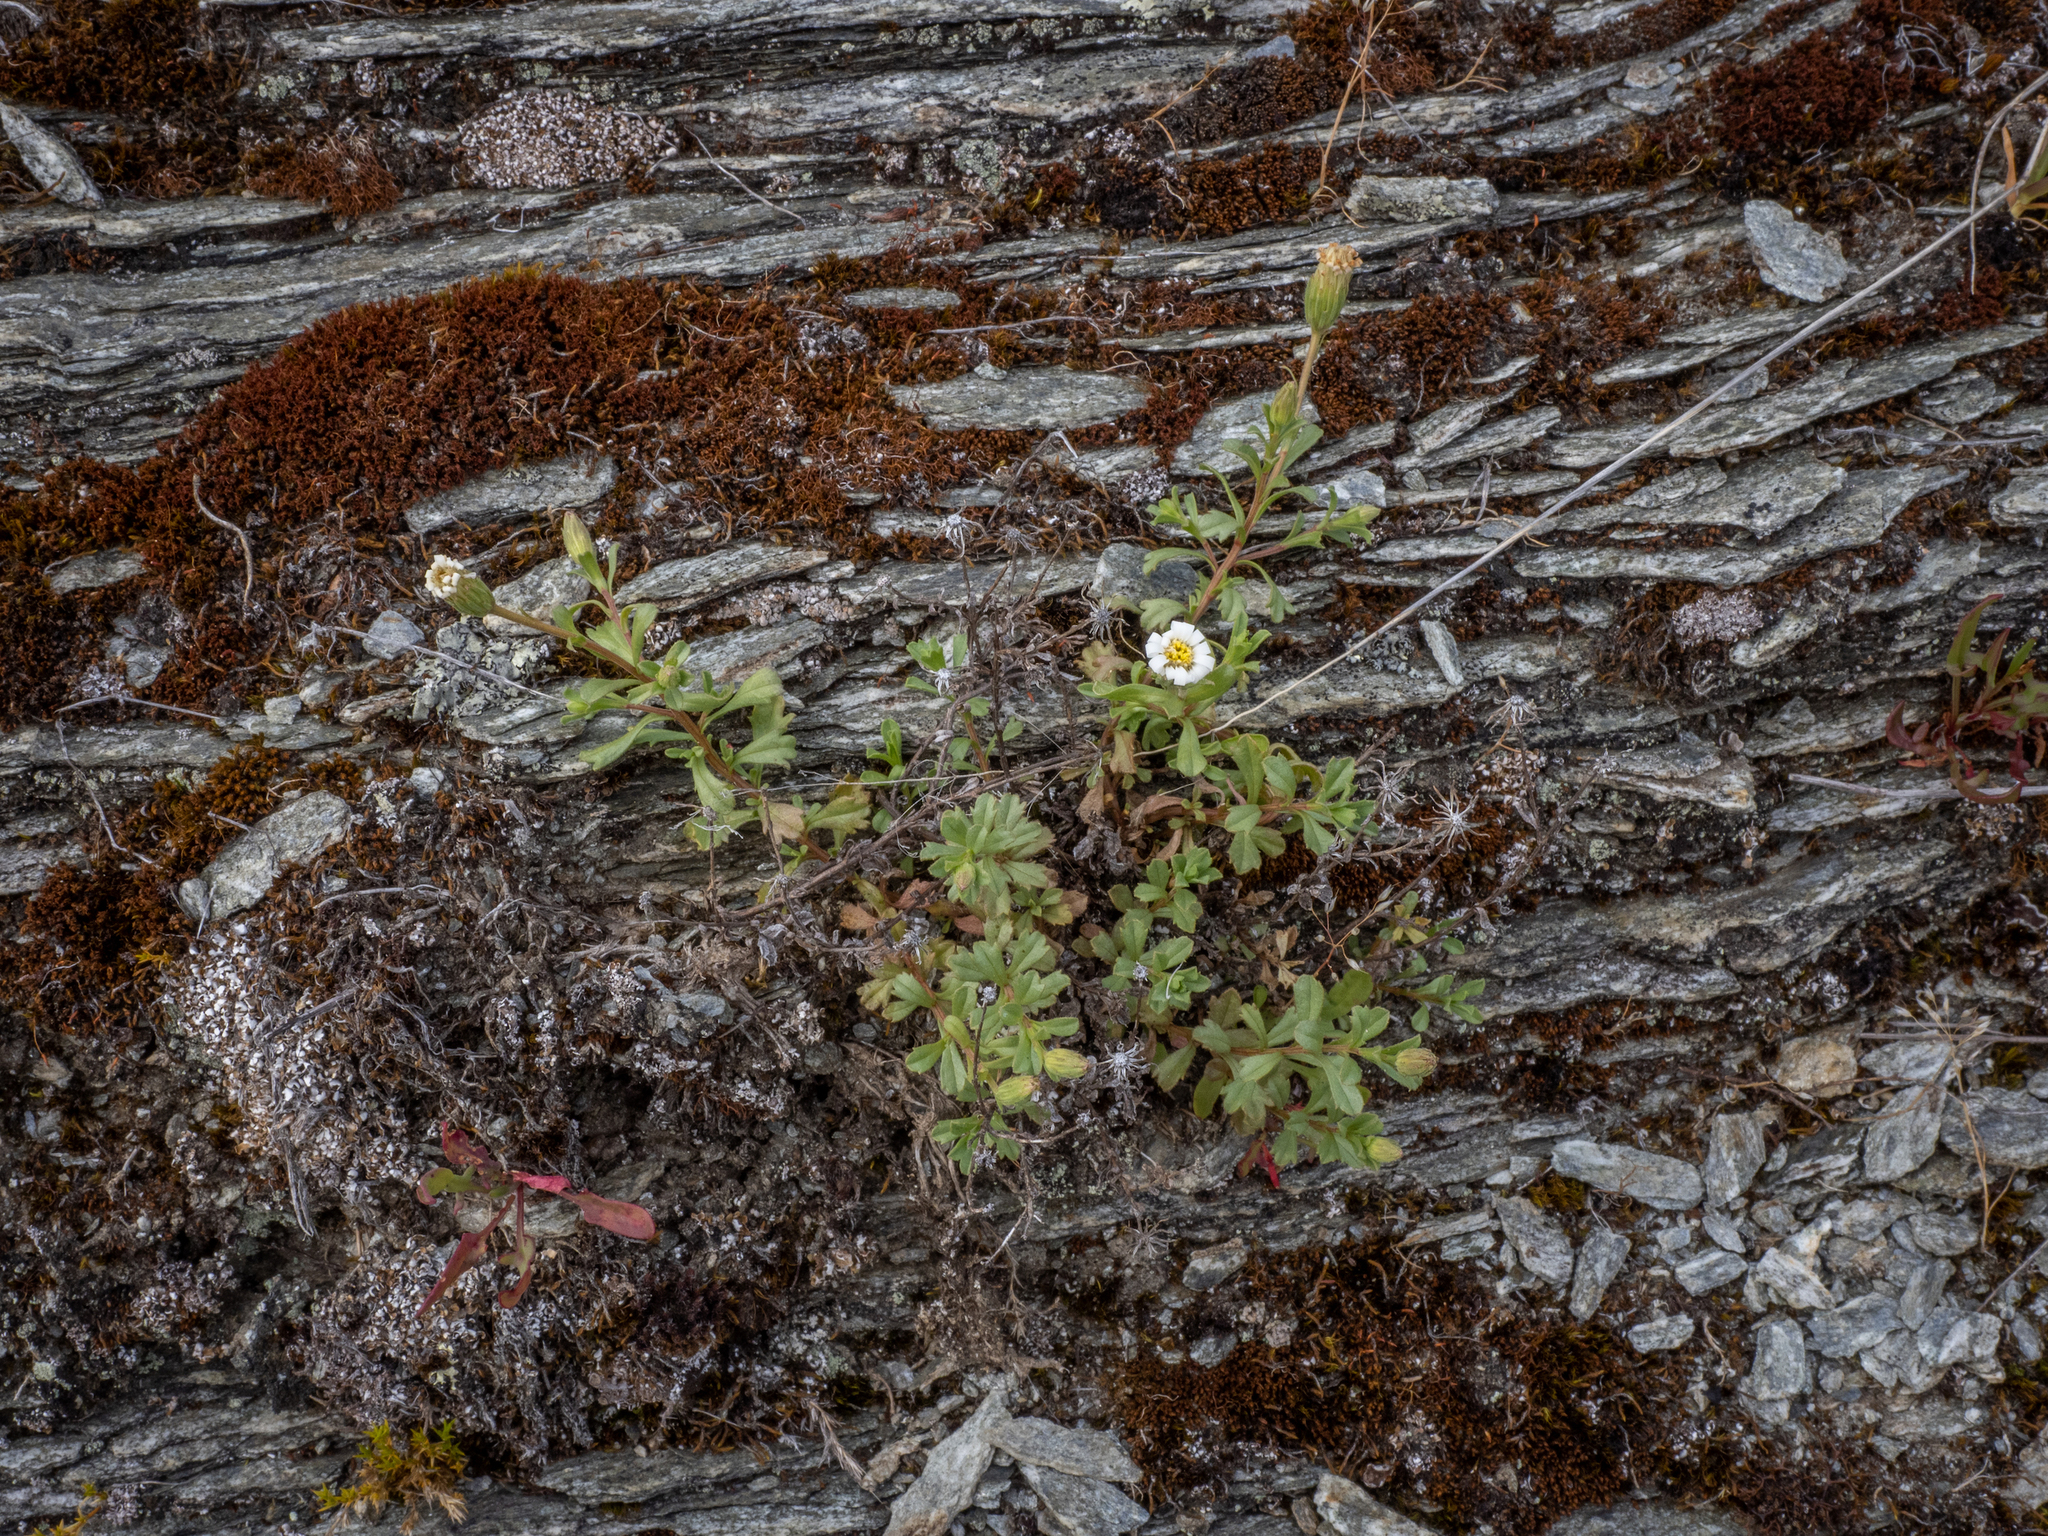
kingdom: Plantae
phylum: Tracheophyta
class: Magnoliopsida
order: Asterales
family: Asteraceae
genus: Vittadinia
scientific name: Vittadinia australis
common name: White fuzzweed
